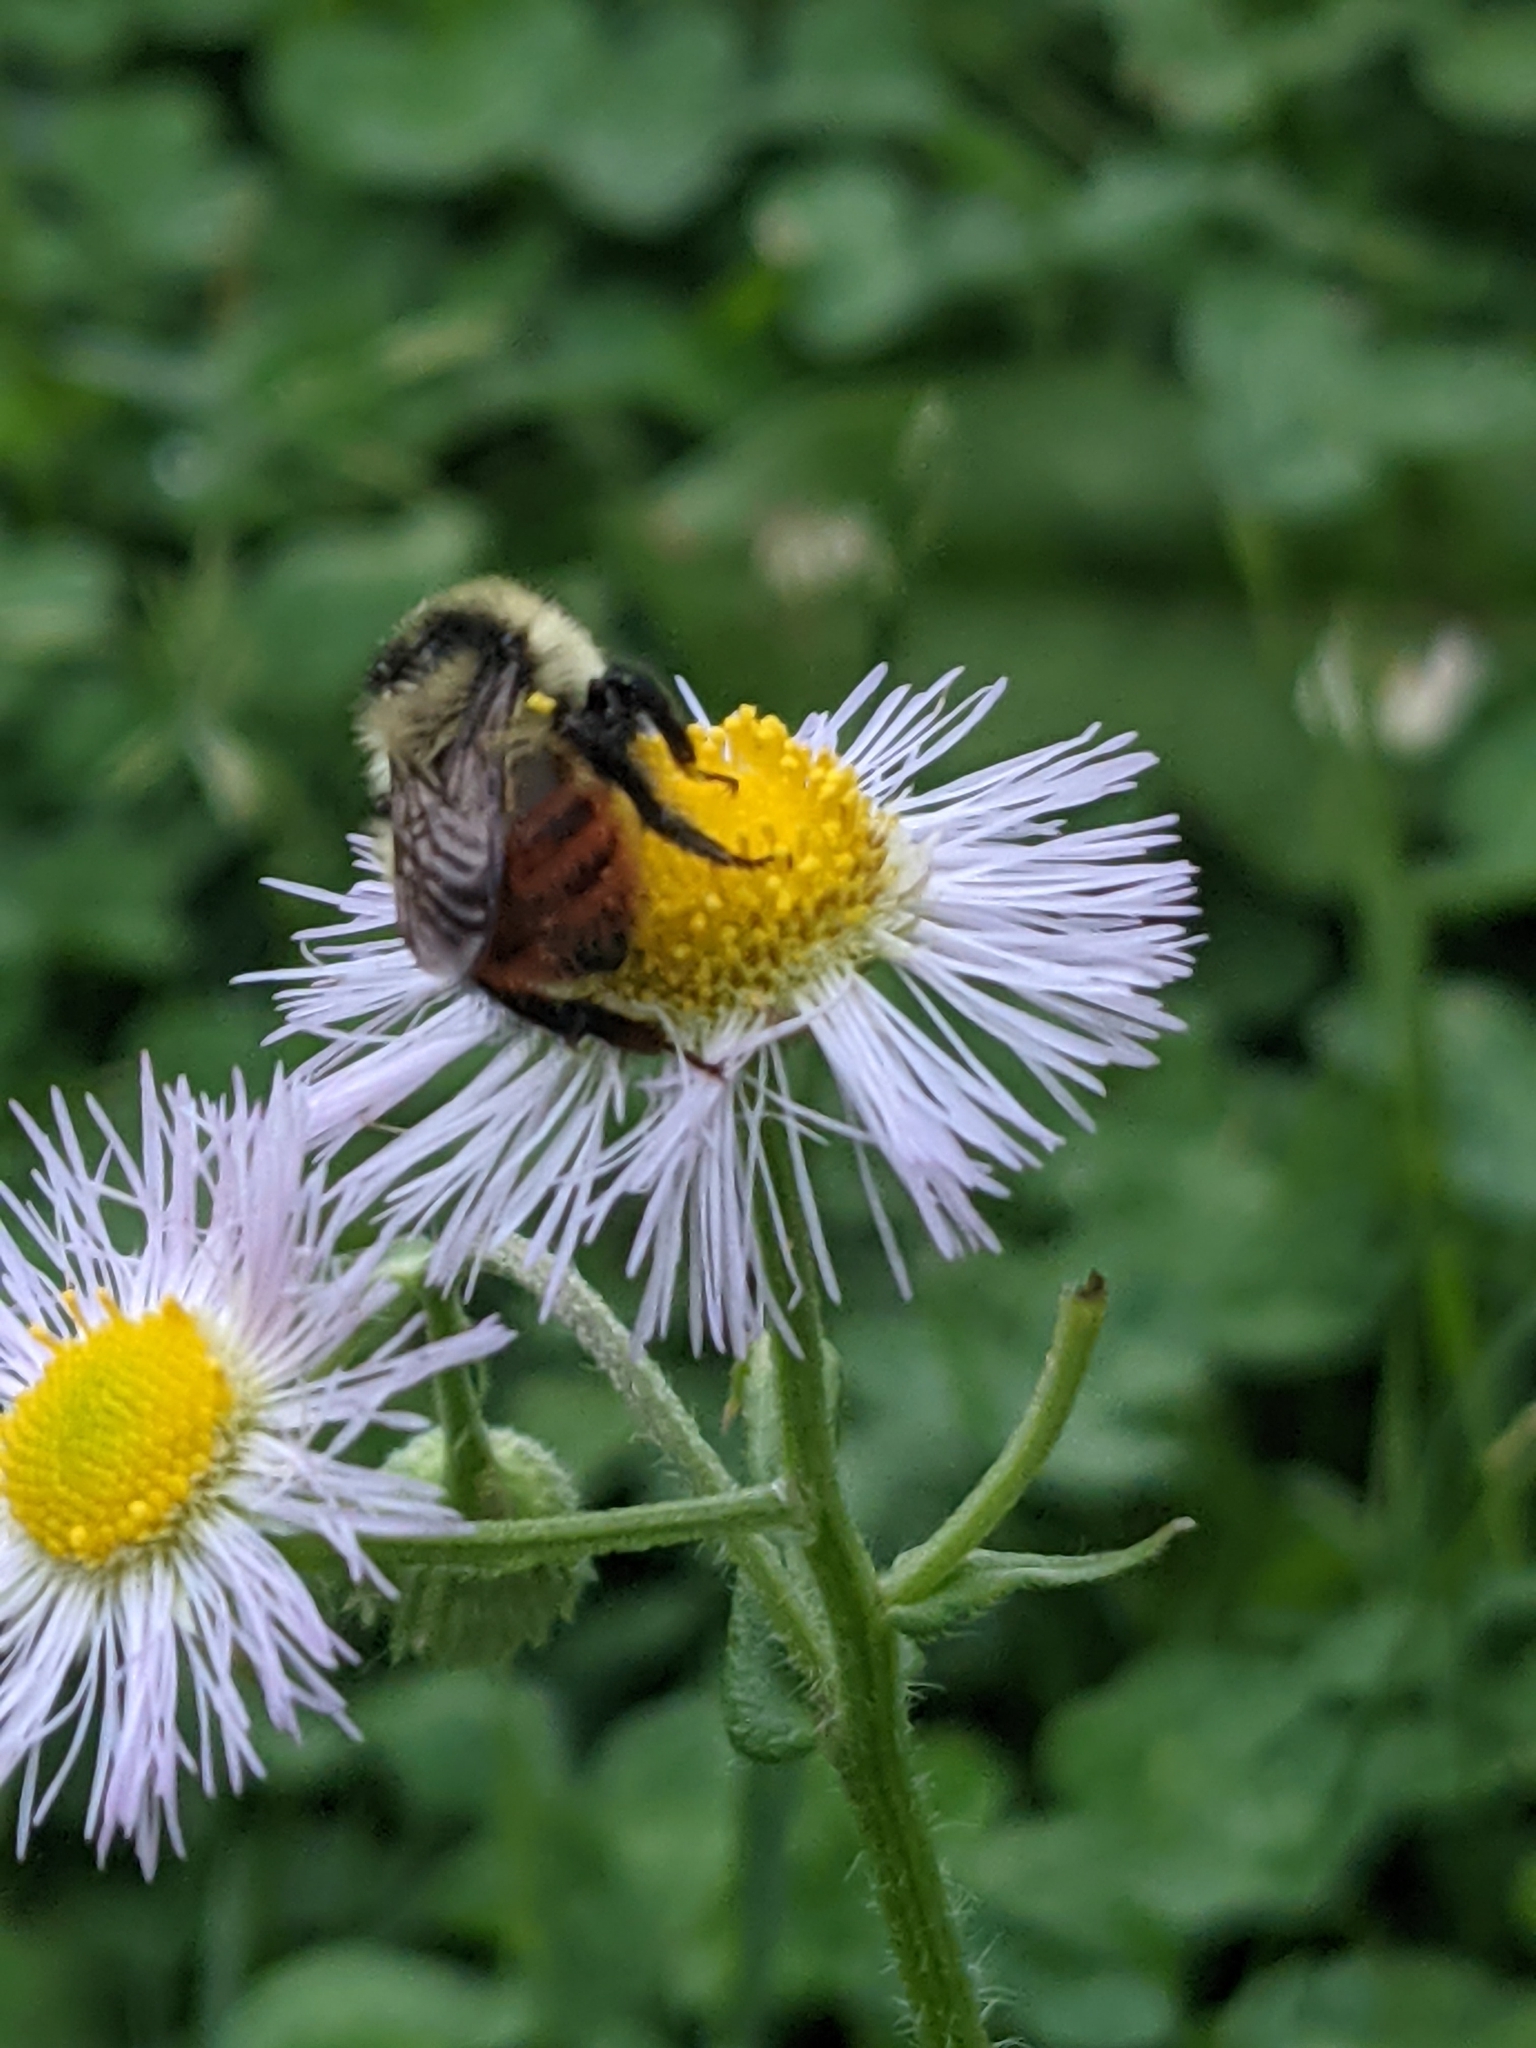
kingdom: Animalia
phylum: Arthropoda
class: Insecta
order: Hymenoptera
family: Apidae
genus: Bombus
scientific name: Bombus rufocinctus
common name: Red-belted bumble bee
